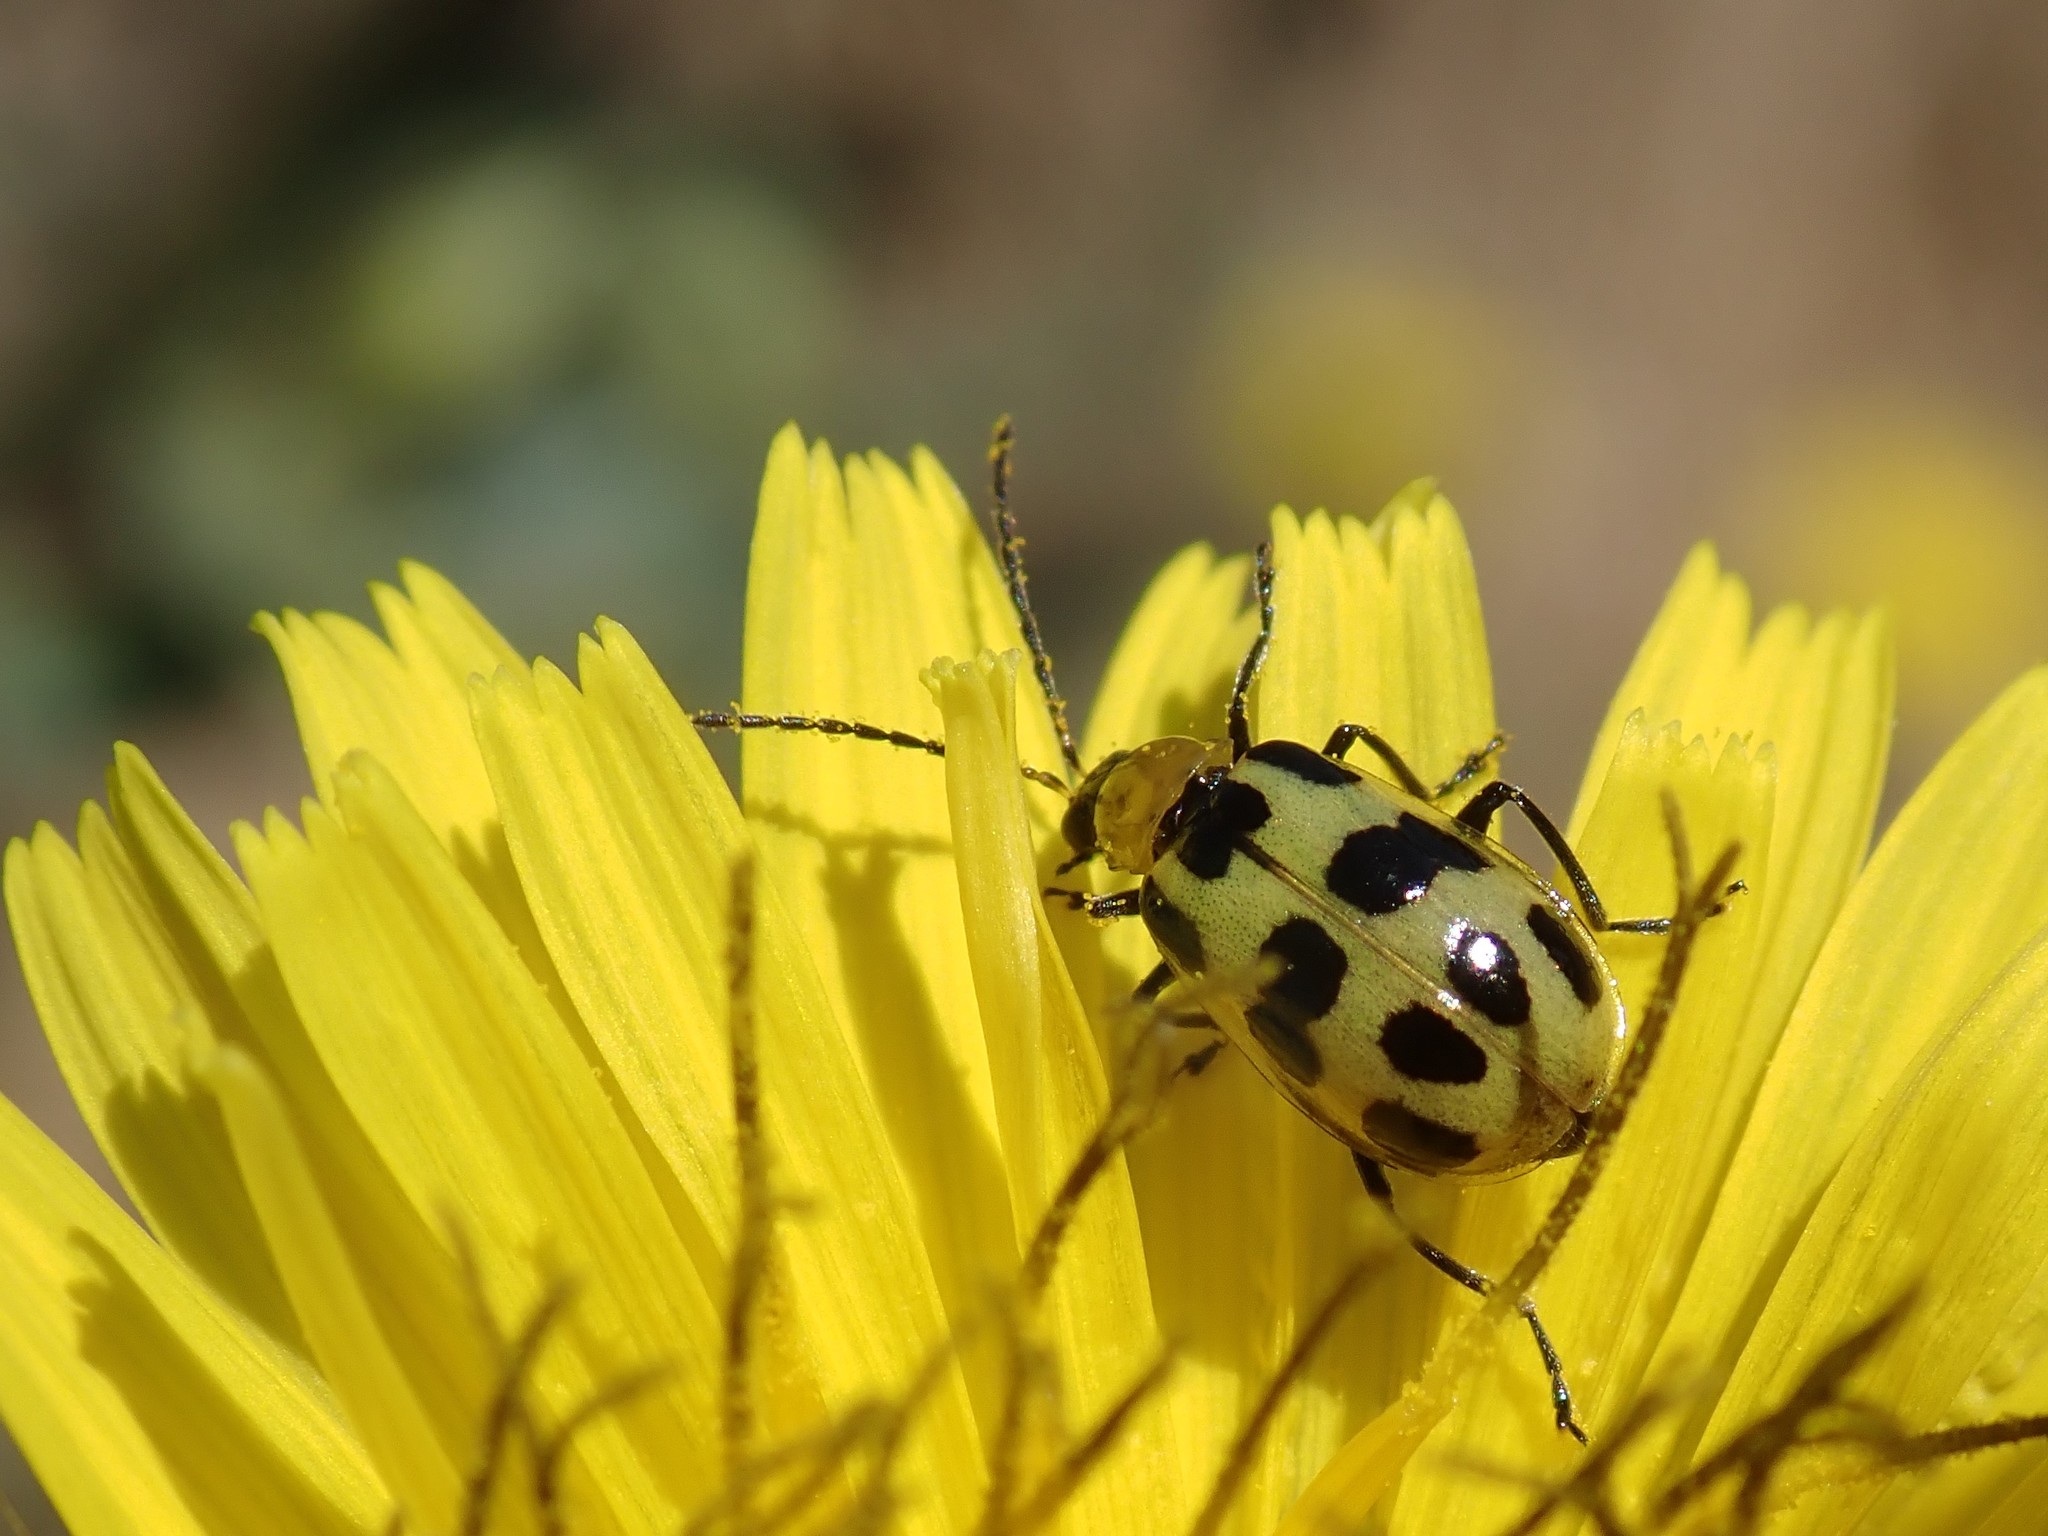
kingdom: Animalia
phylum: Arthropoda
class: Insecta
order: Coleoptera
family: Chrysomelidae
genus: Diabrotica
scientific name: Diabrotica undecimpunctata
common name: Spotted cucumber beetle
